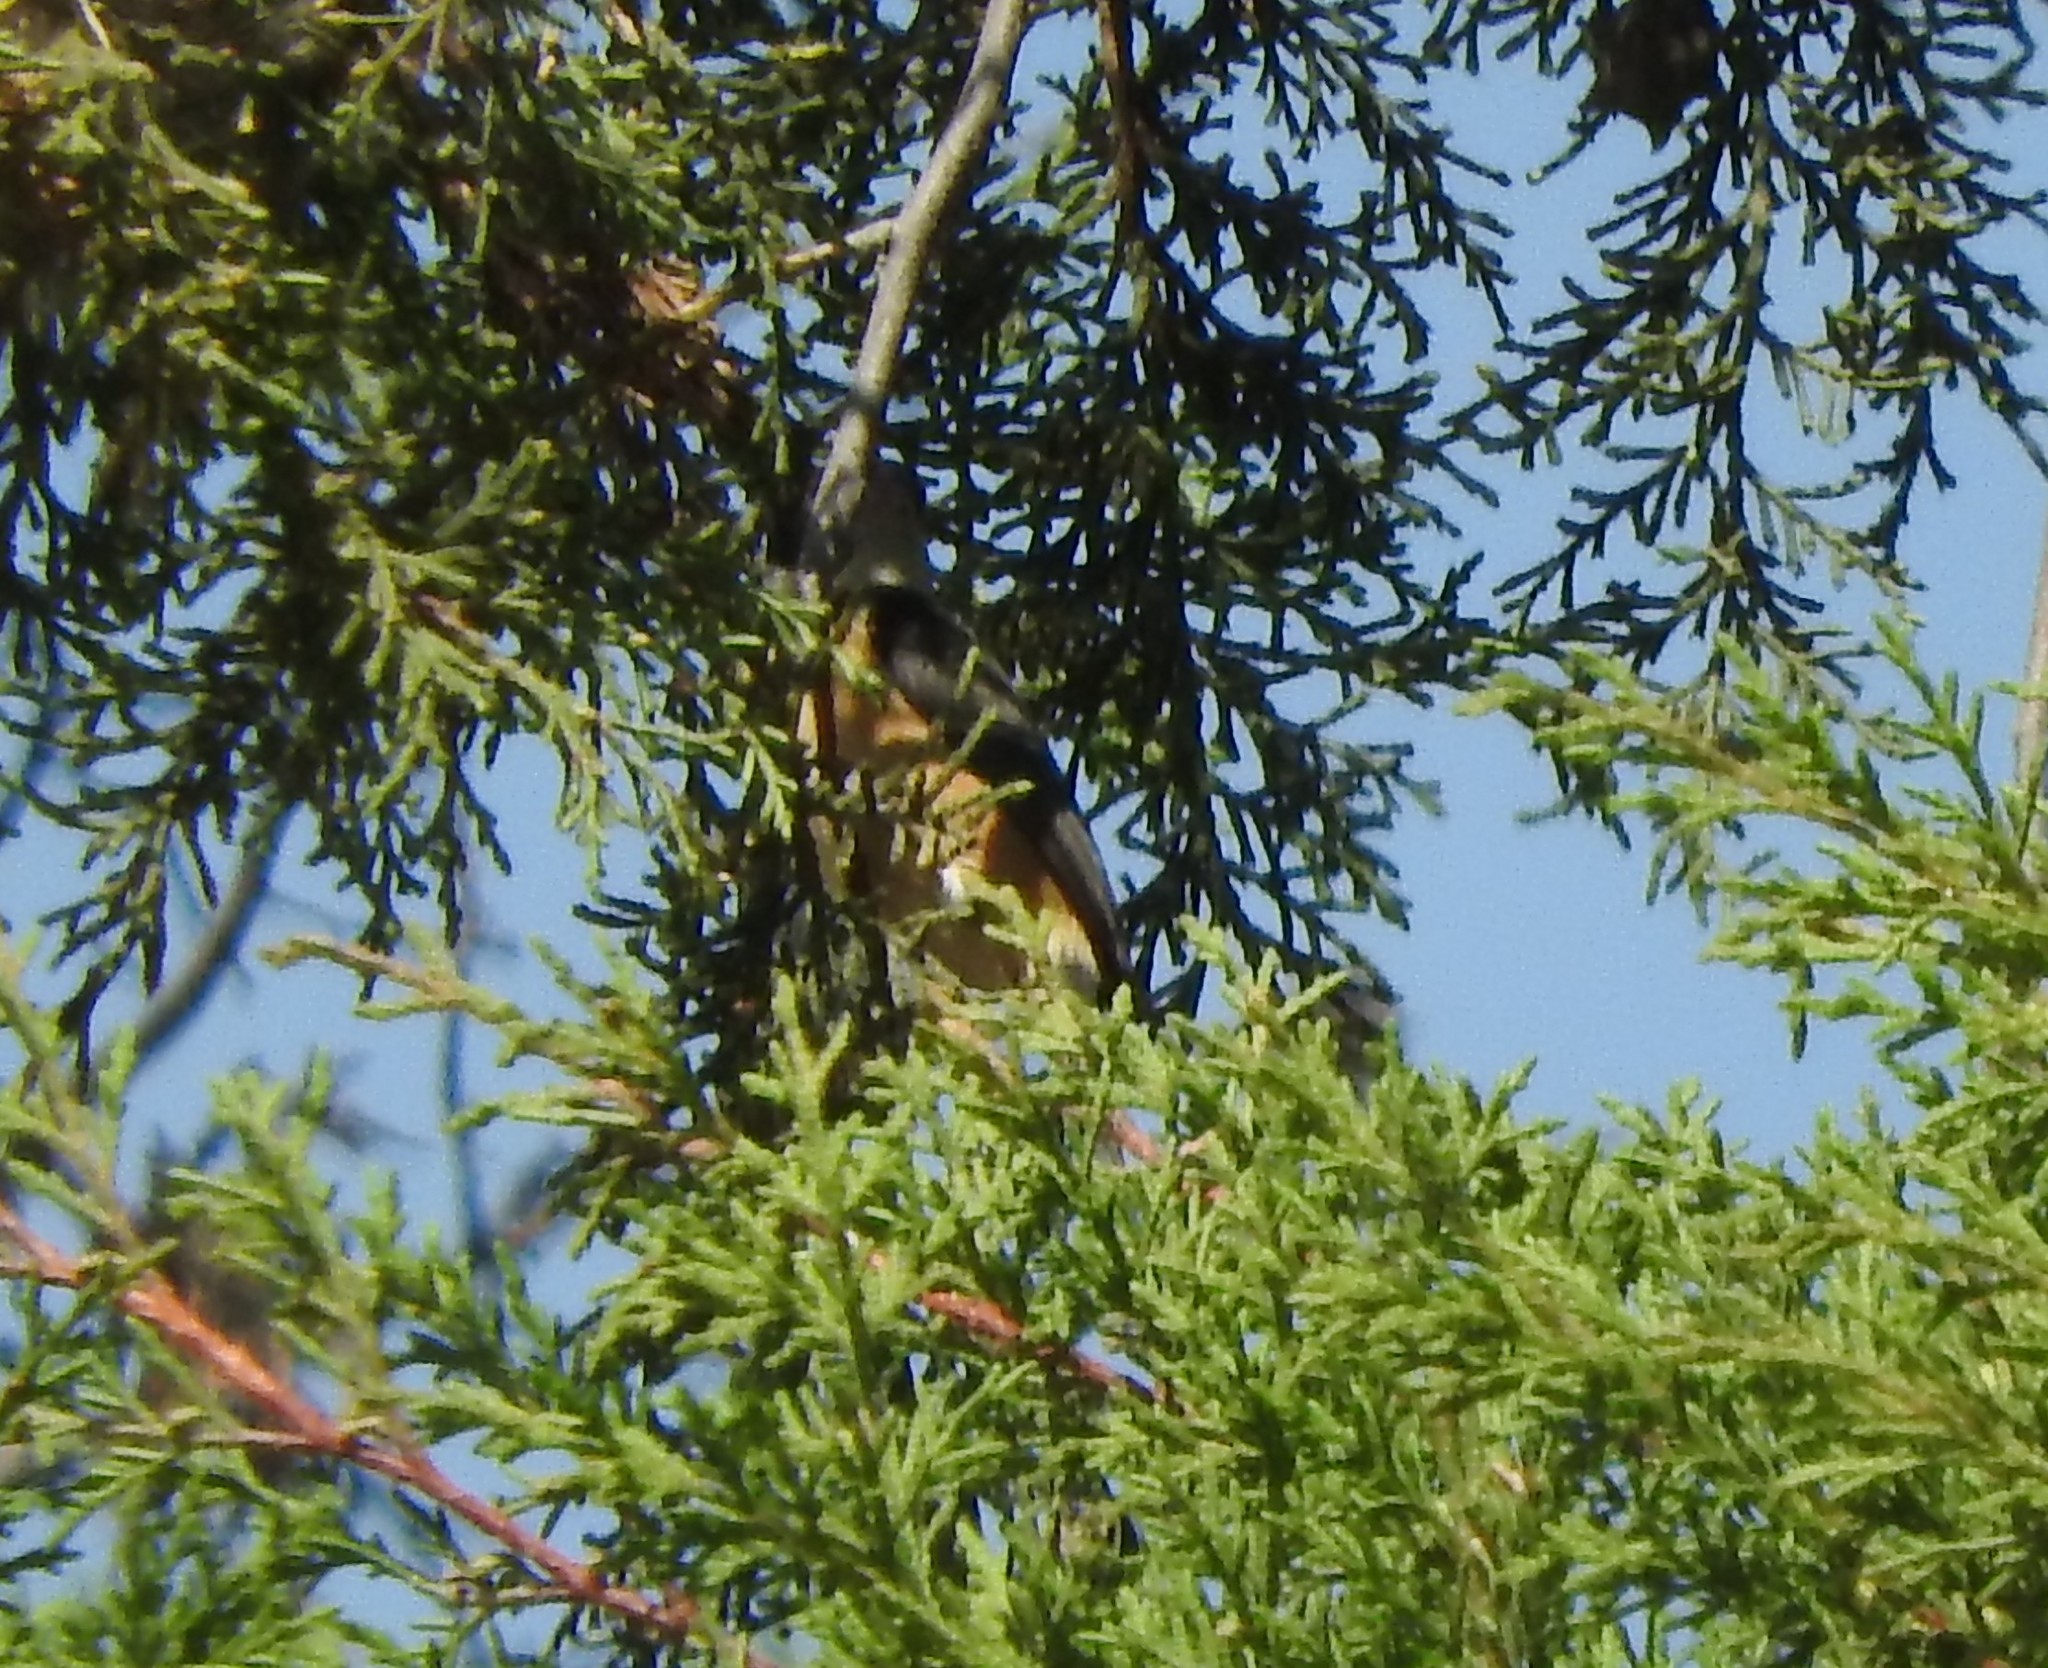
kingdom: Animalia
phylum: Chordata
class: Aves
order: Passeriformes
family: Thraupidae
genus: Sporophila
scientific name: Sporophila torqueola
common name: White-collared seedeater
